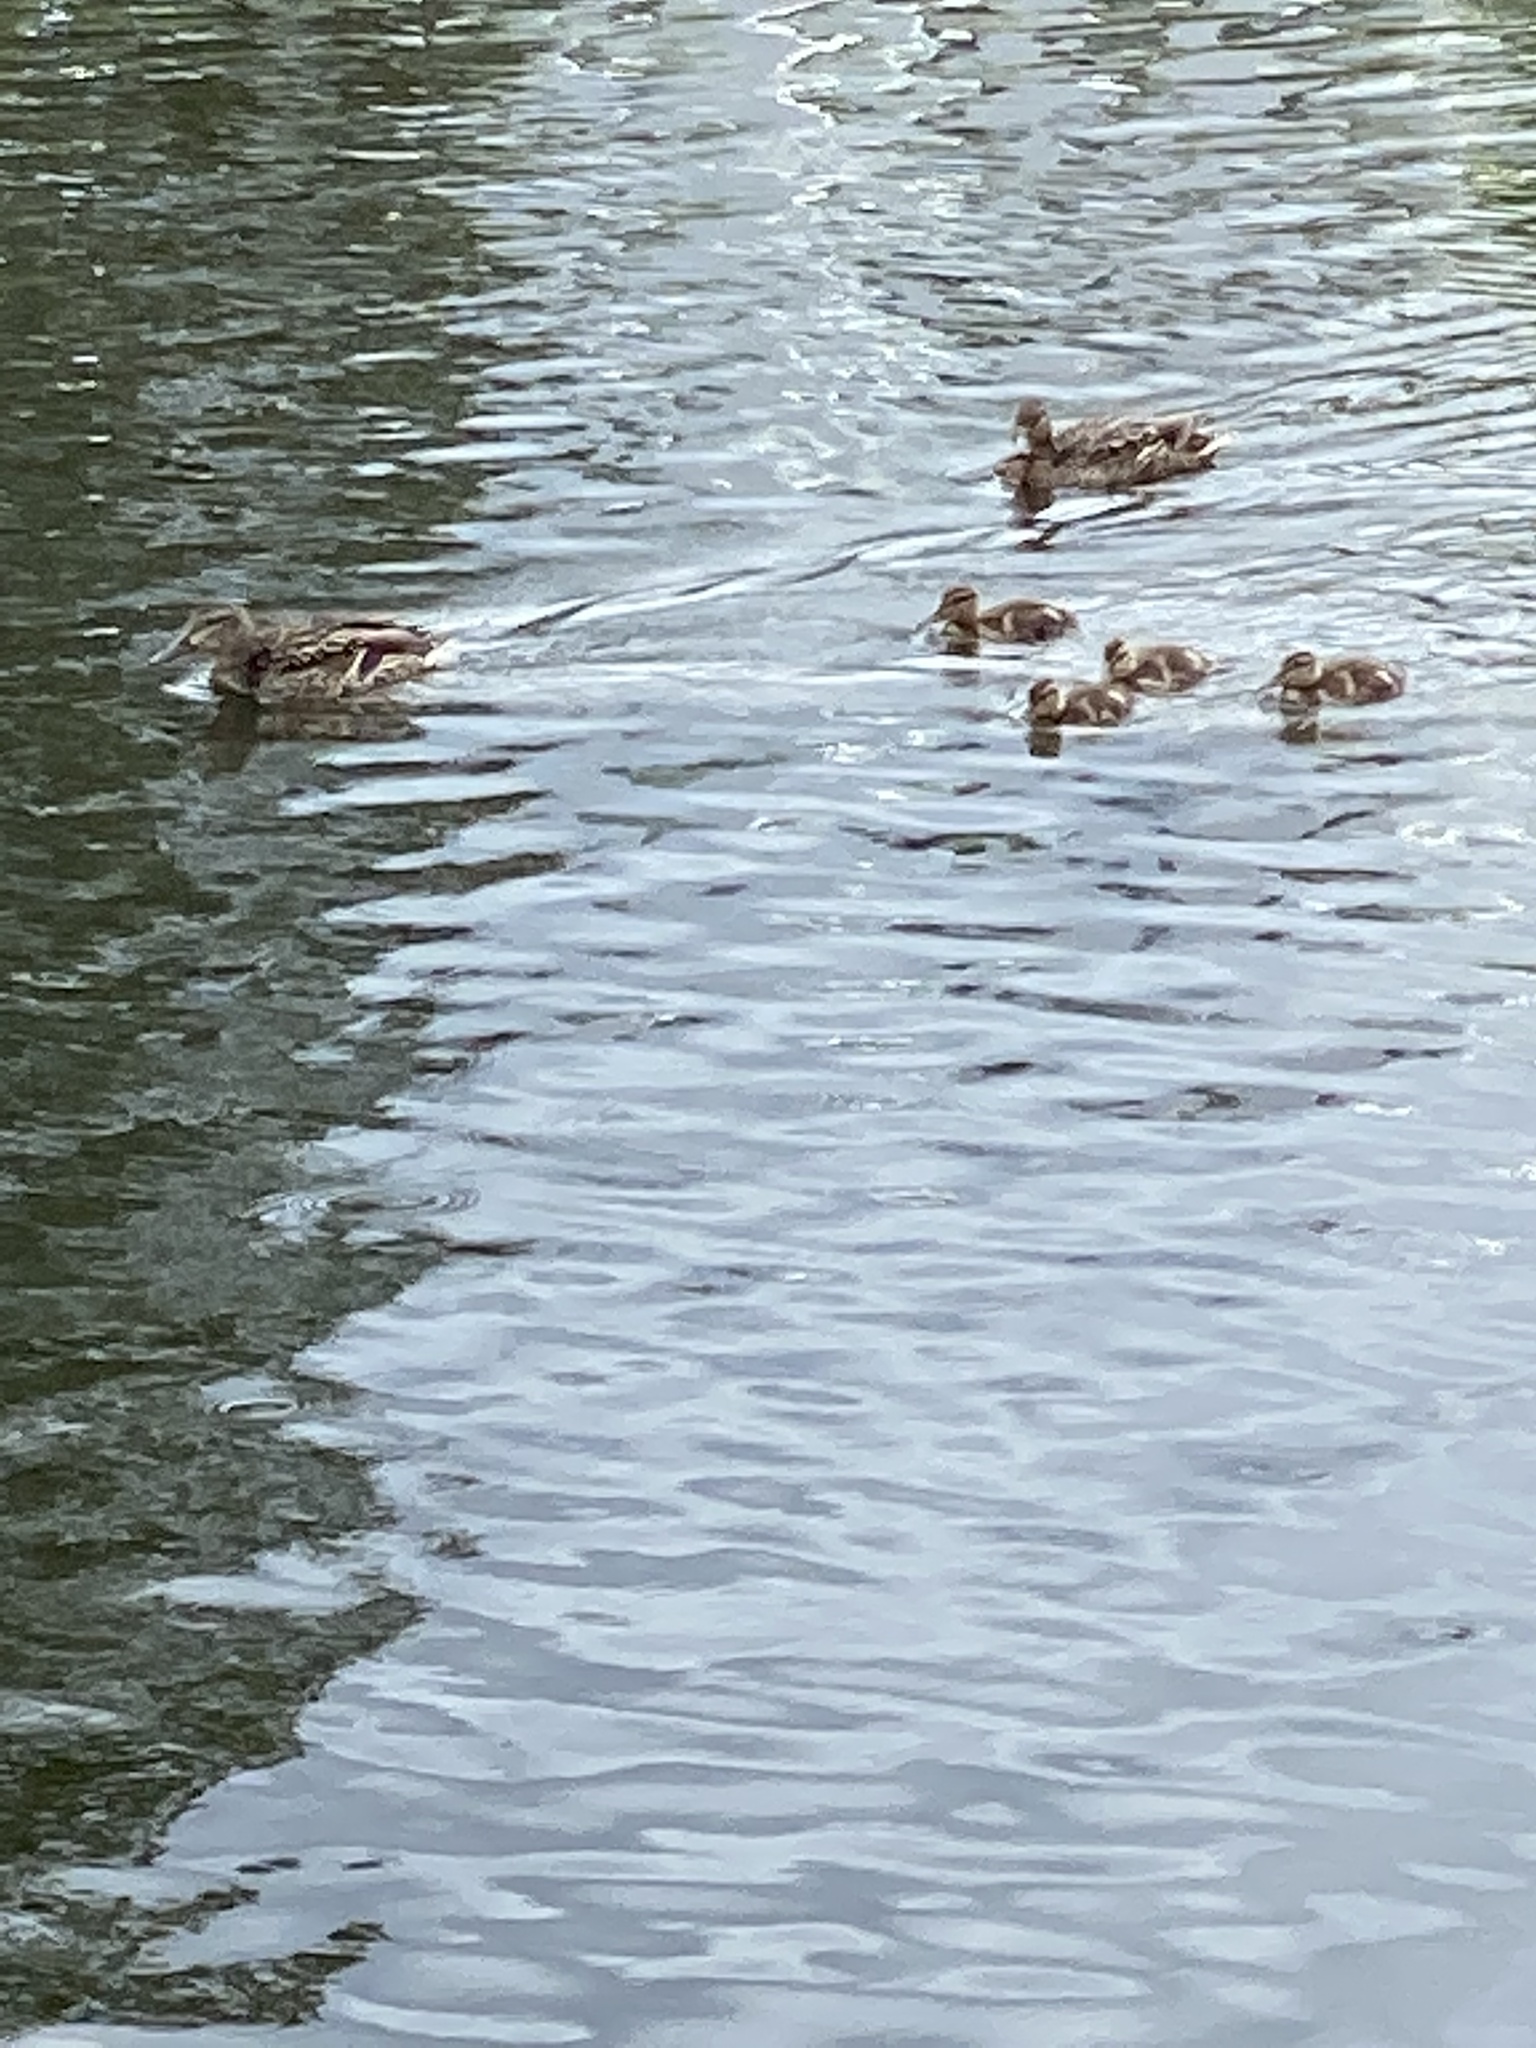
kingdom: Animalia
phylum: Chordata
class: Aves
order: Anseriformes
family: Anatidae
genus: Anas
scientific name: Anas platyrhynchos
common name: Mallard
